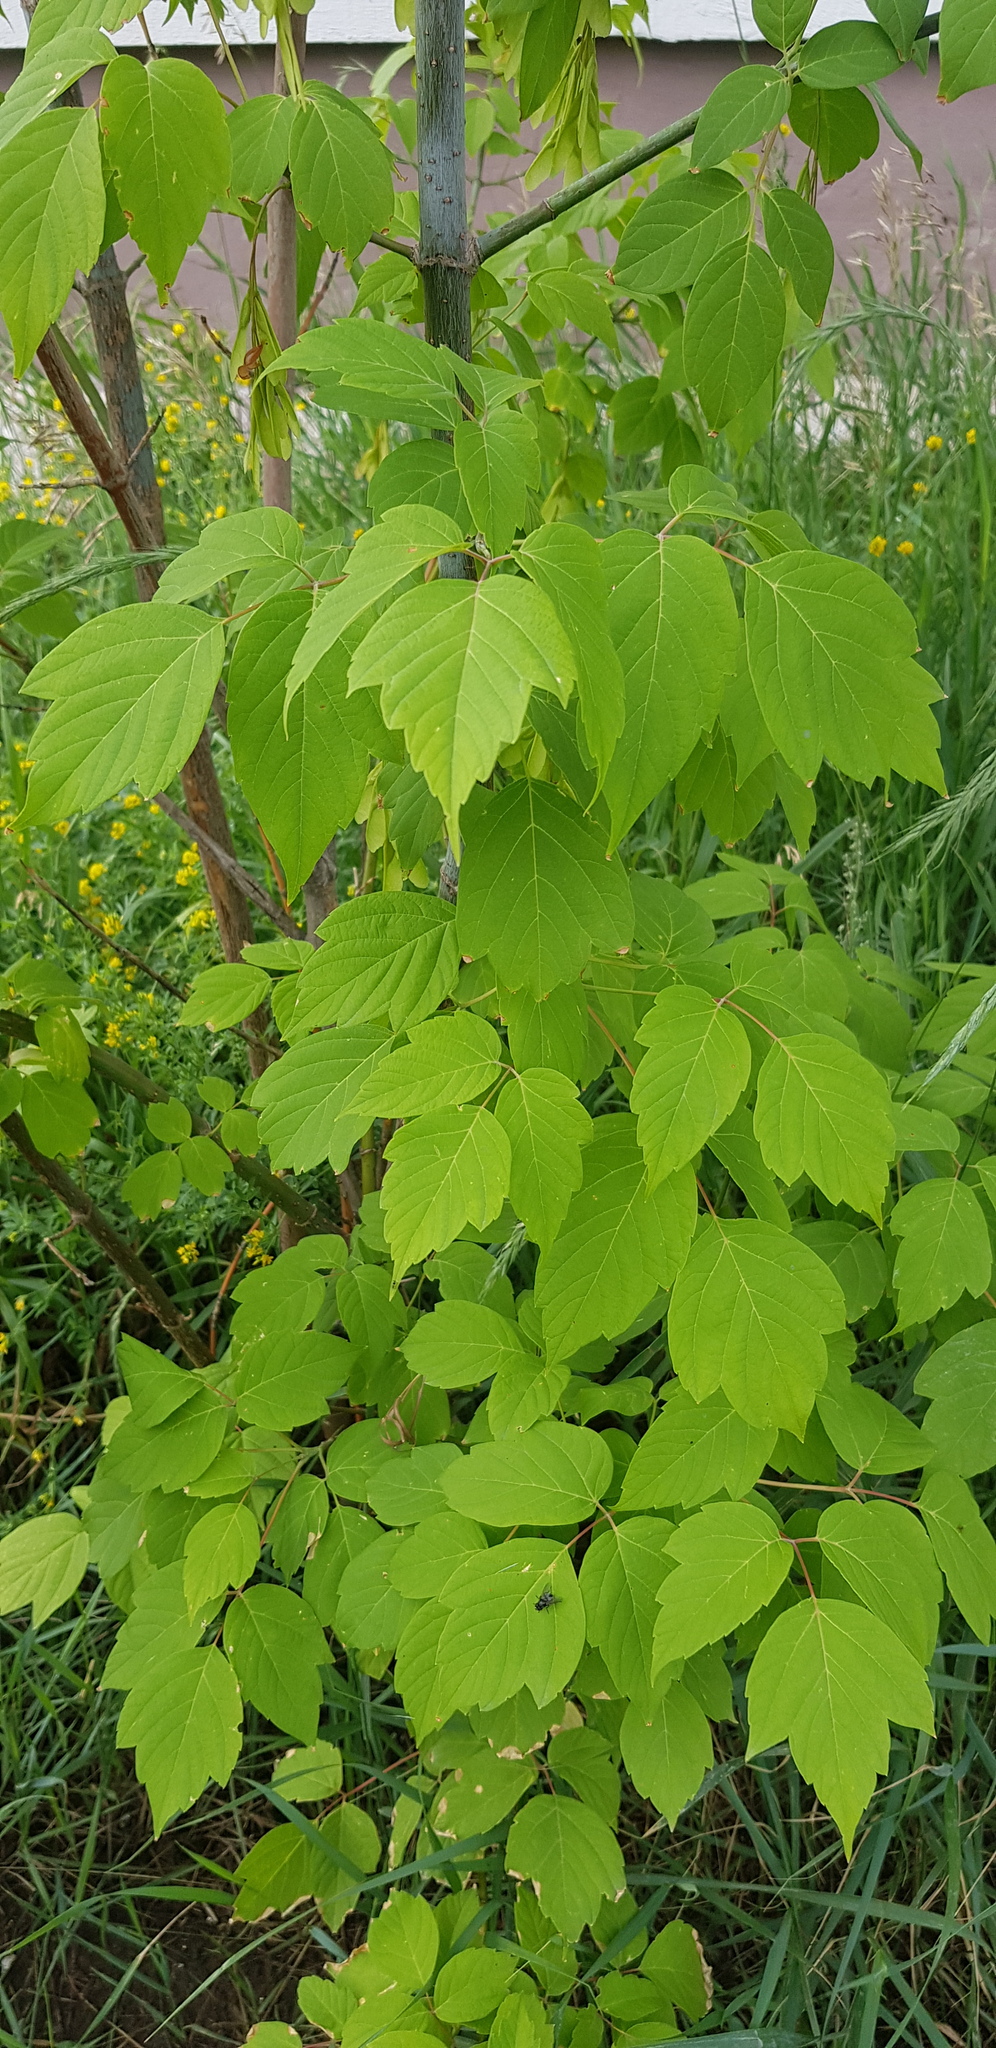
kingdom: Plantae
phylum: Tracheophyta
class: Magnoliopsida
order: Sapindales
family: Sapindaceae
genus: Acer
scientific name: Acer negundo
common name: Ashleaf maple
